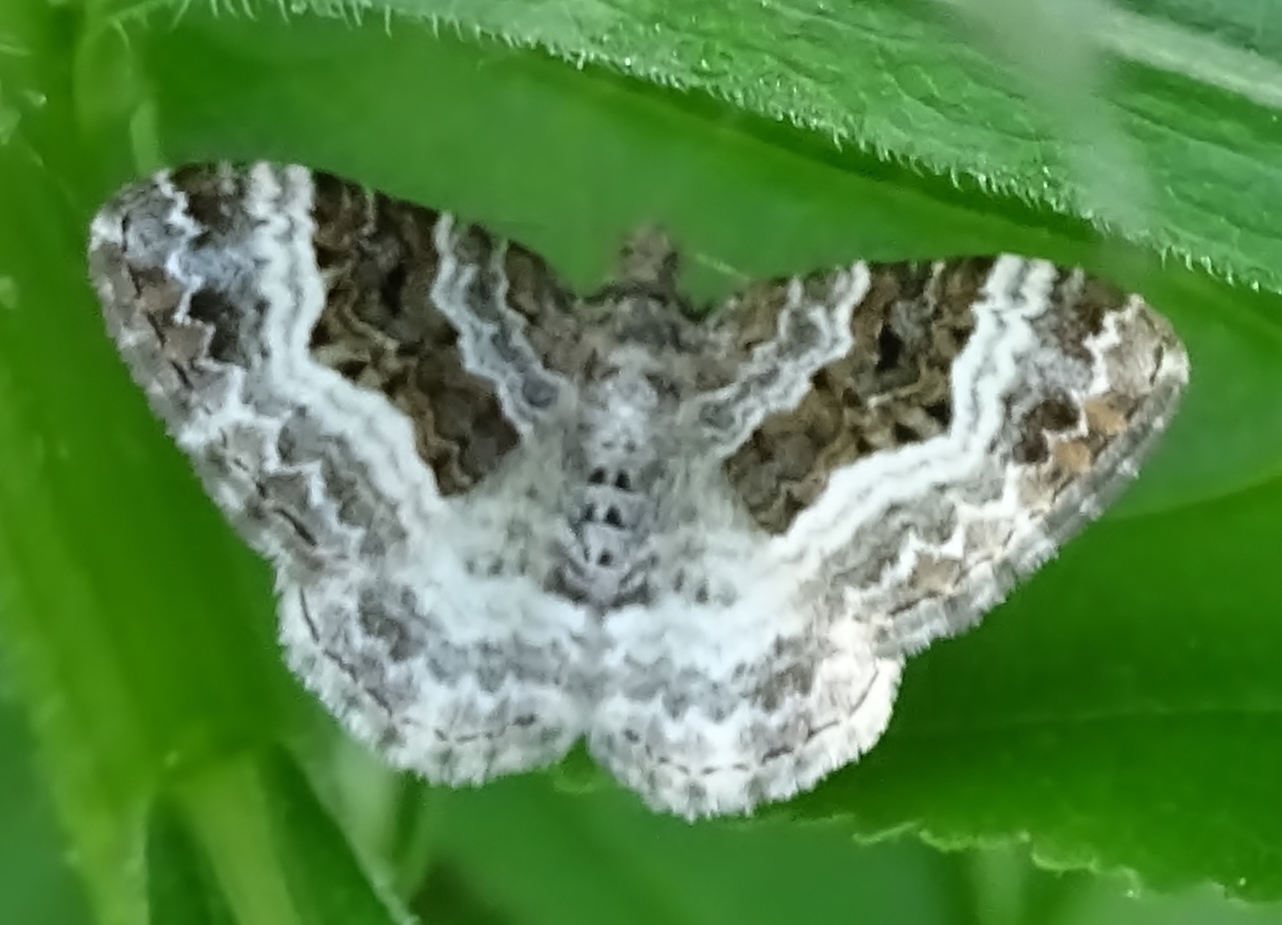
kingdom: Animalia
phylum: Arthropoda
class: Insecta
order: Lepidoptera
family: Geometridae
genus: Epirrhoe
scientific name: Epirrhoe alternata
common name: Common carpet
